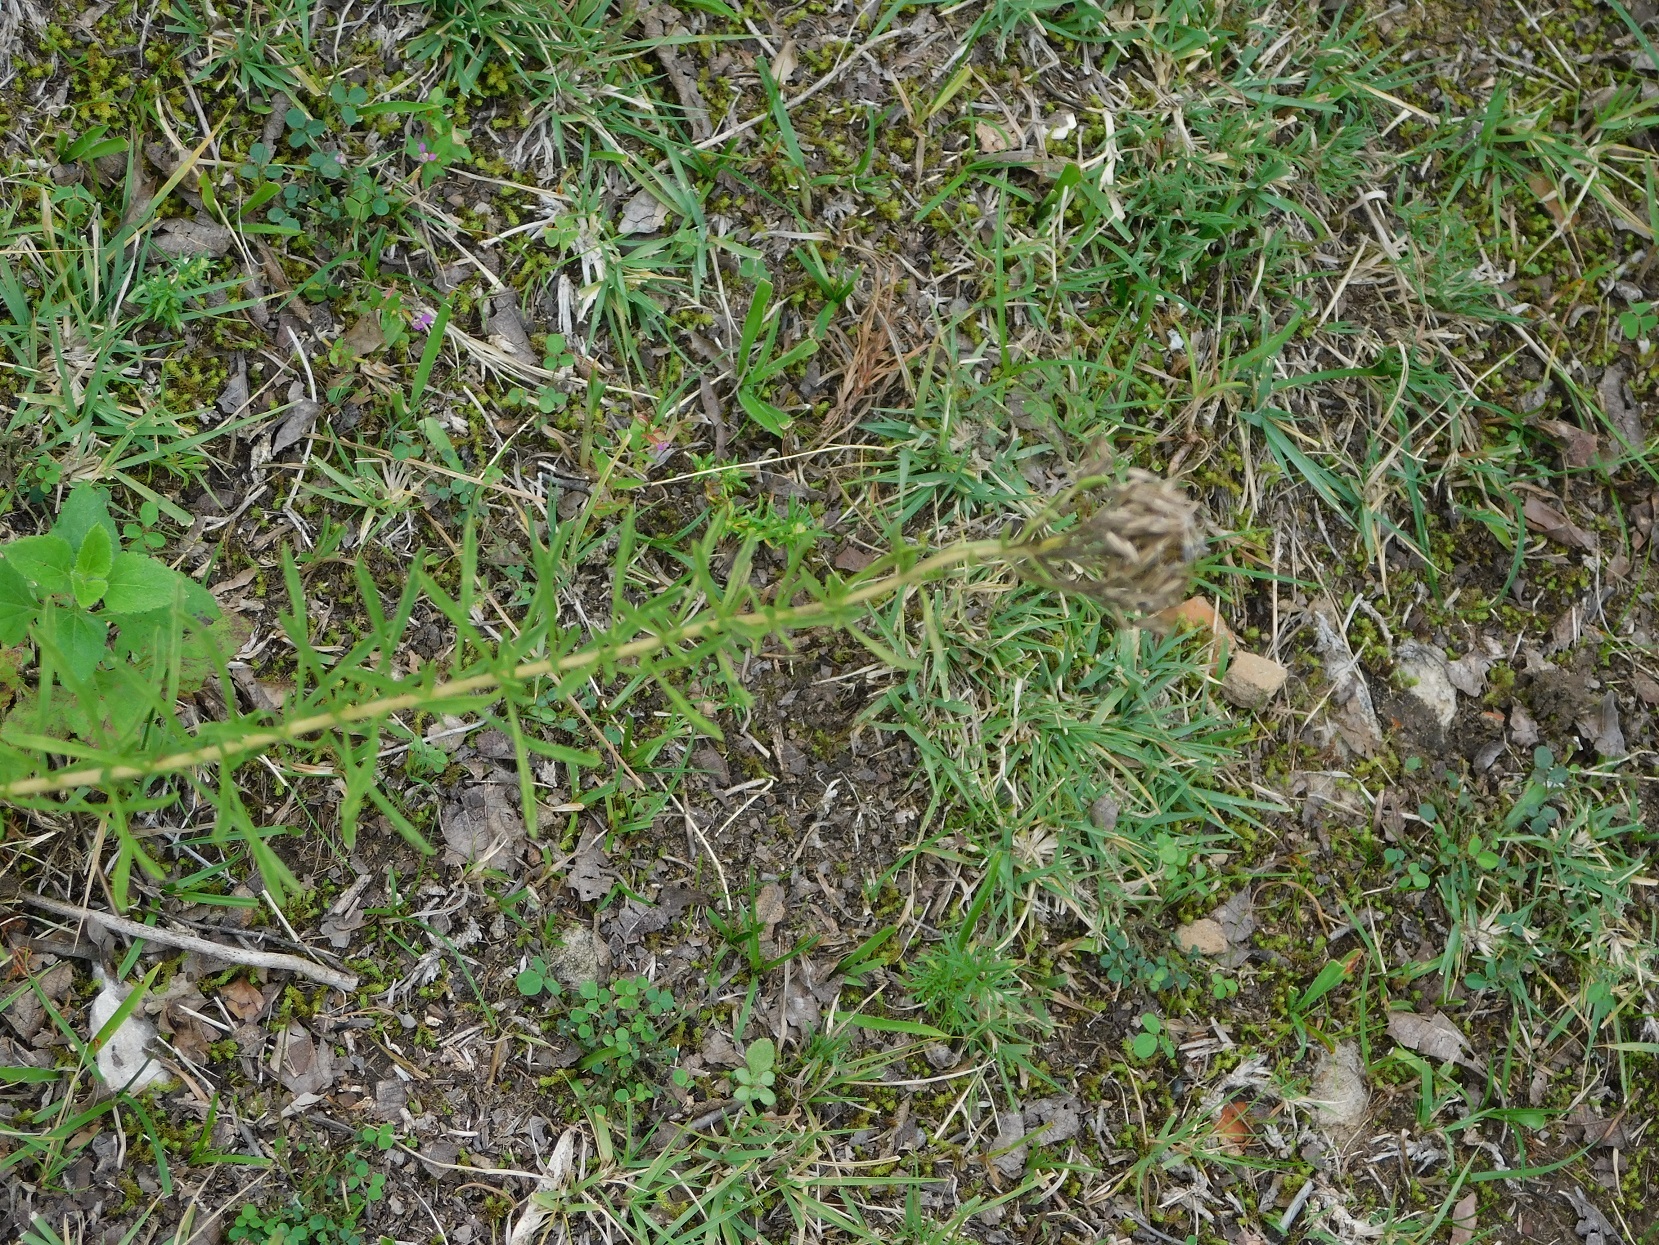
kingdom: Plantae
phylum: Tracheophyta
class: Magnoliopsida
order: Asterales
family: Asteraceae
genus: Stevia
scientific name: Stevia serrata
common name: Sawtooth candyleaf
